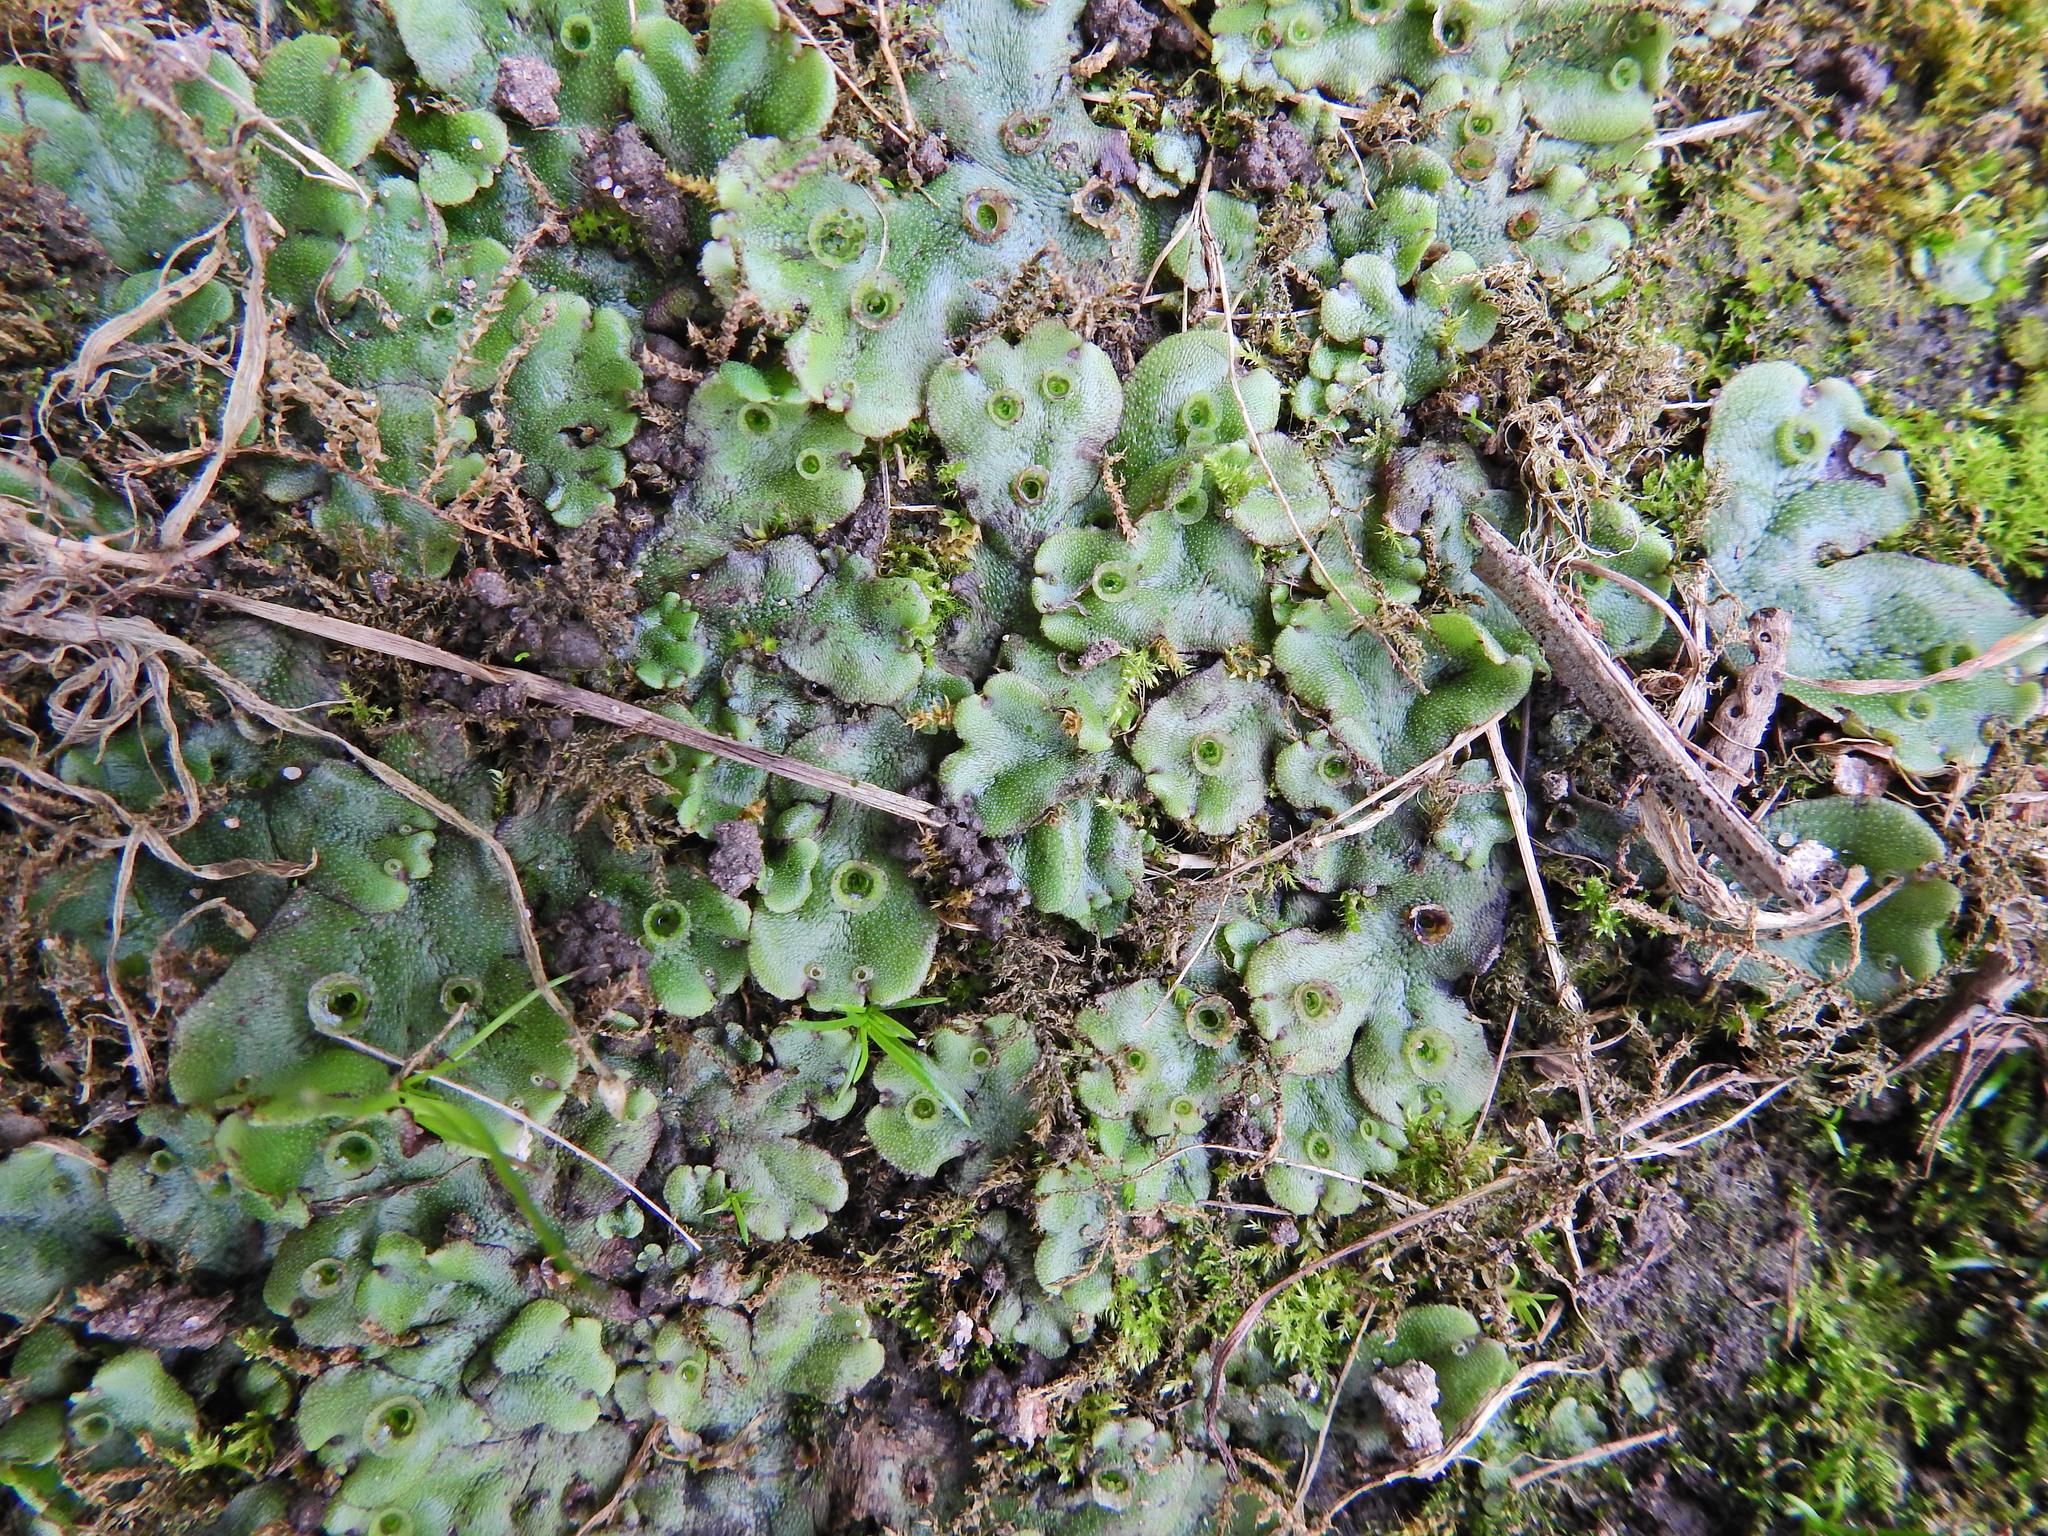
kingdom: Plantae
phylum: Marchantiophyta
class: Marchantiopsida
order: Marchantiales
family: Marchantiaceae
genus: Marchantia
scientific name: Marchantia polymorpha
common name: Common liverwort
